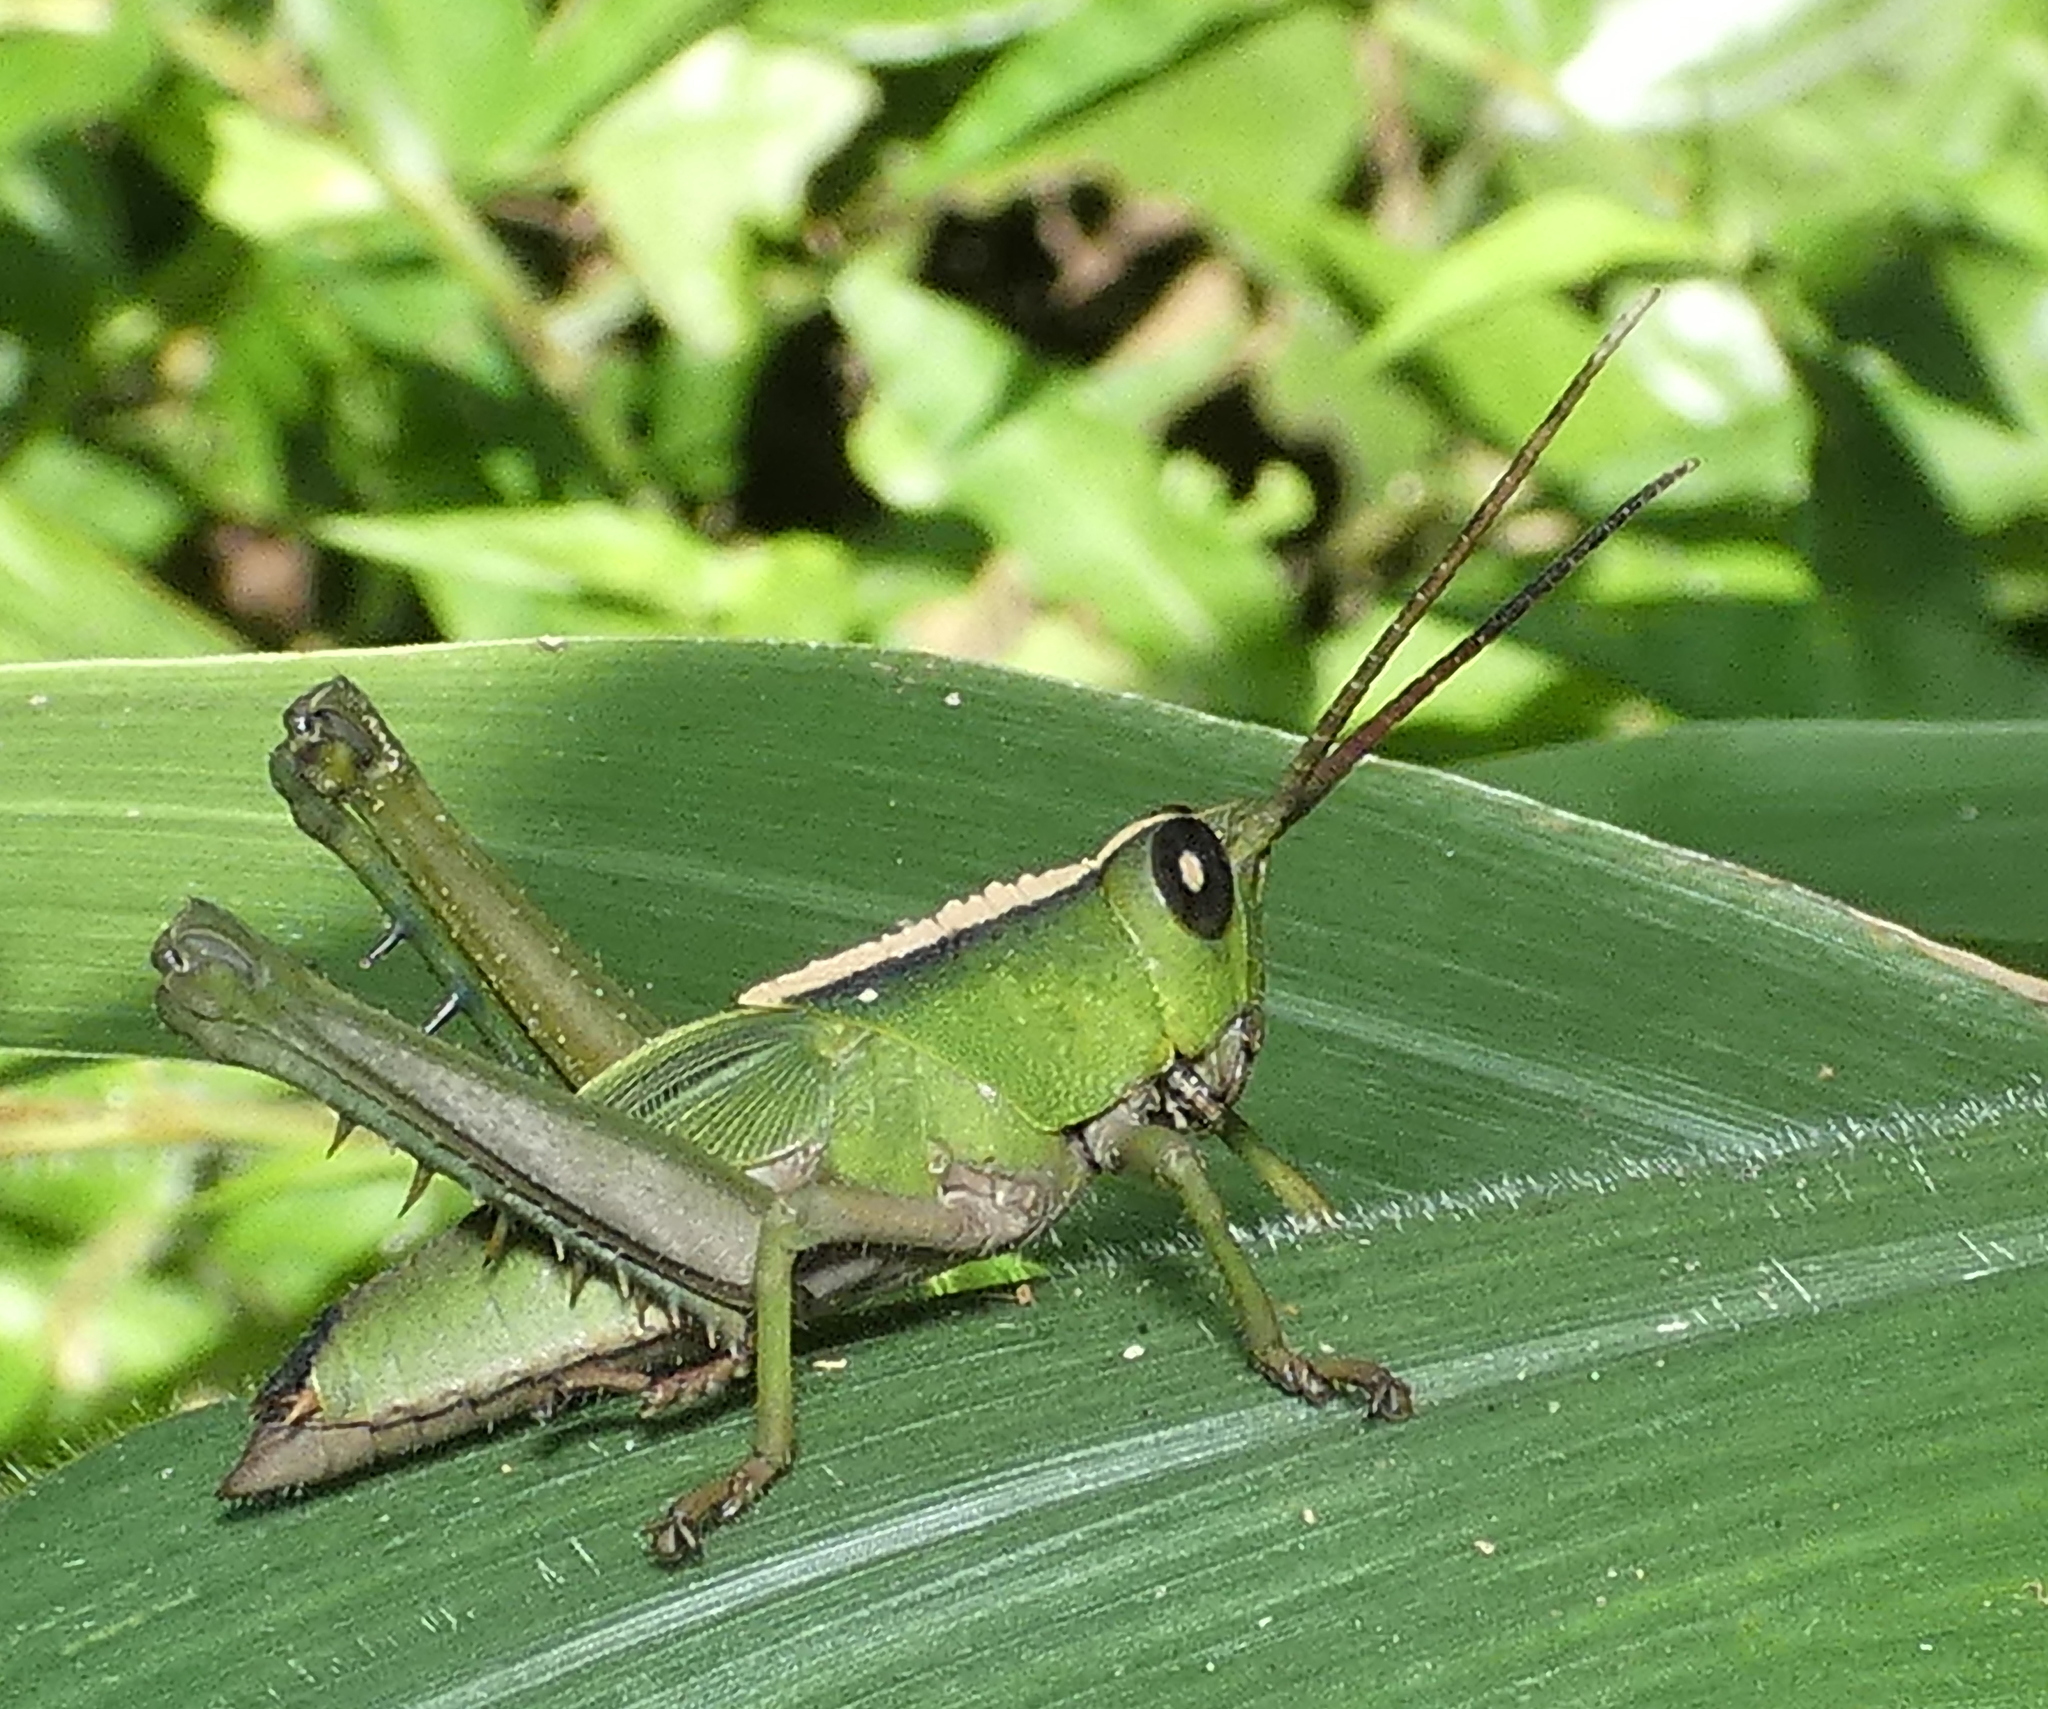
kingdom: Animalia
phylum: Arthropoda
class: Insecta
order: Orthoptera
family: Romaleidae
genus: Agriacris
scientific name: Agriacris auripennis
